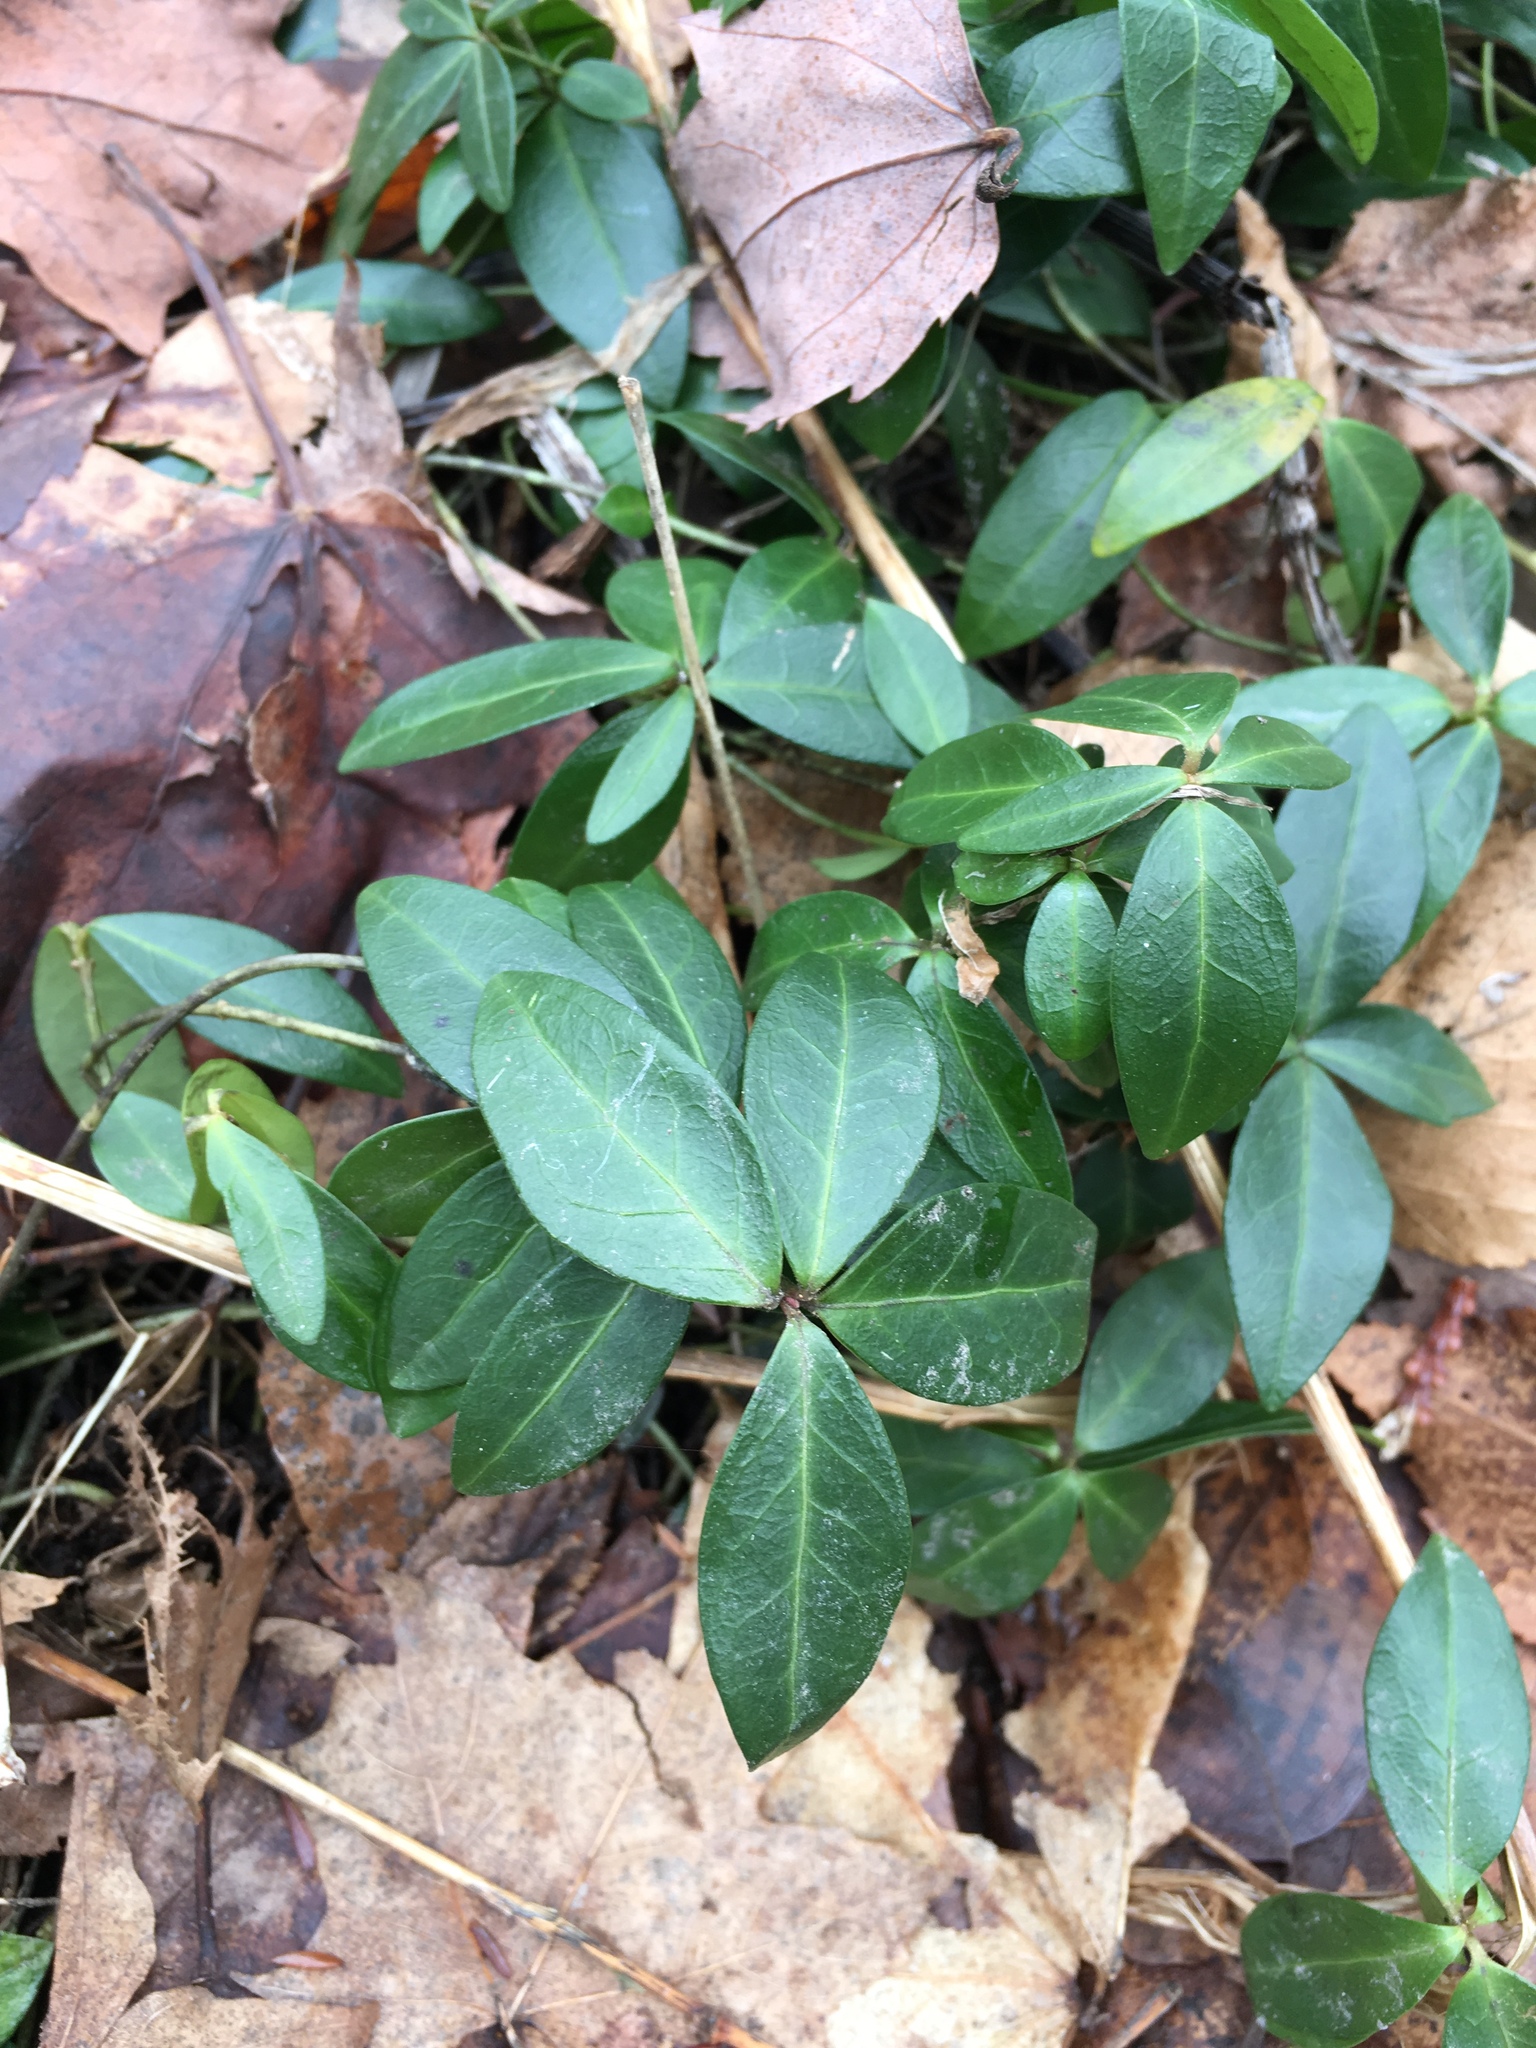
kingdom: Plantae
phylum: Tracheophyta
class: Magnoliopsida
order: Gentianales
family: Apocynaceae
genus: Vinca
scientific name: Vinca minor
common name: Lesser periwinkle
